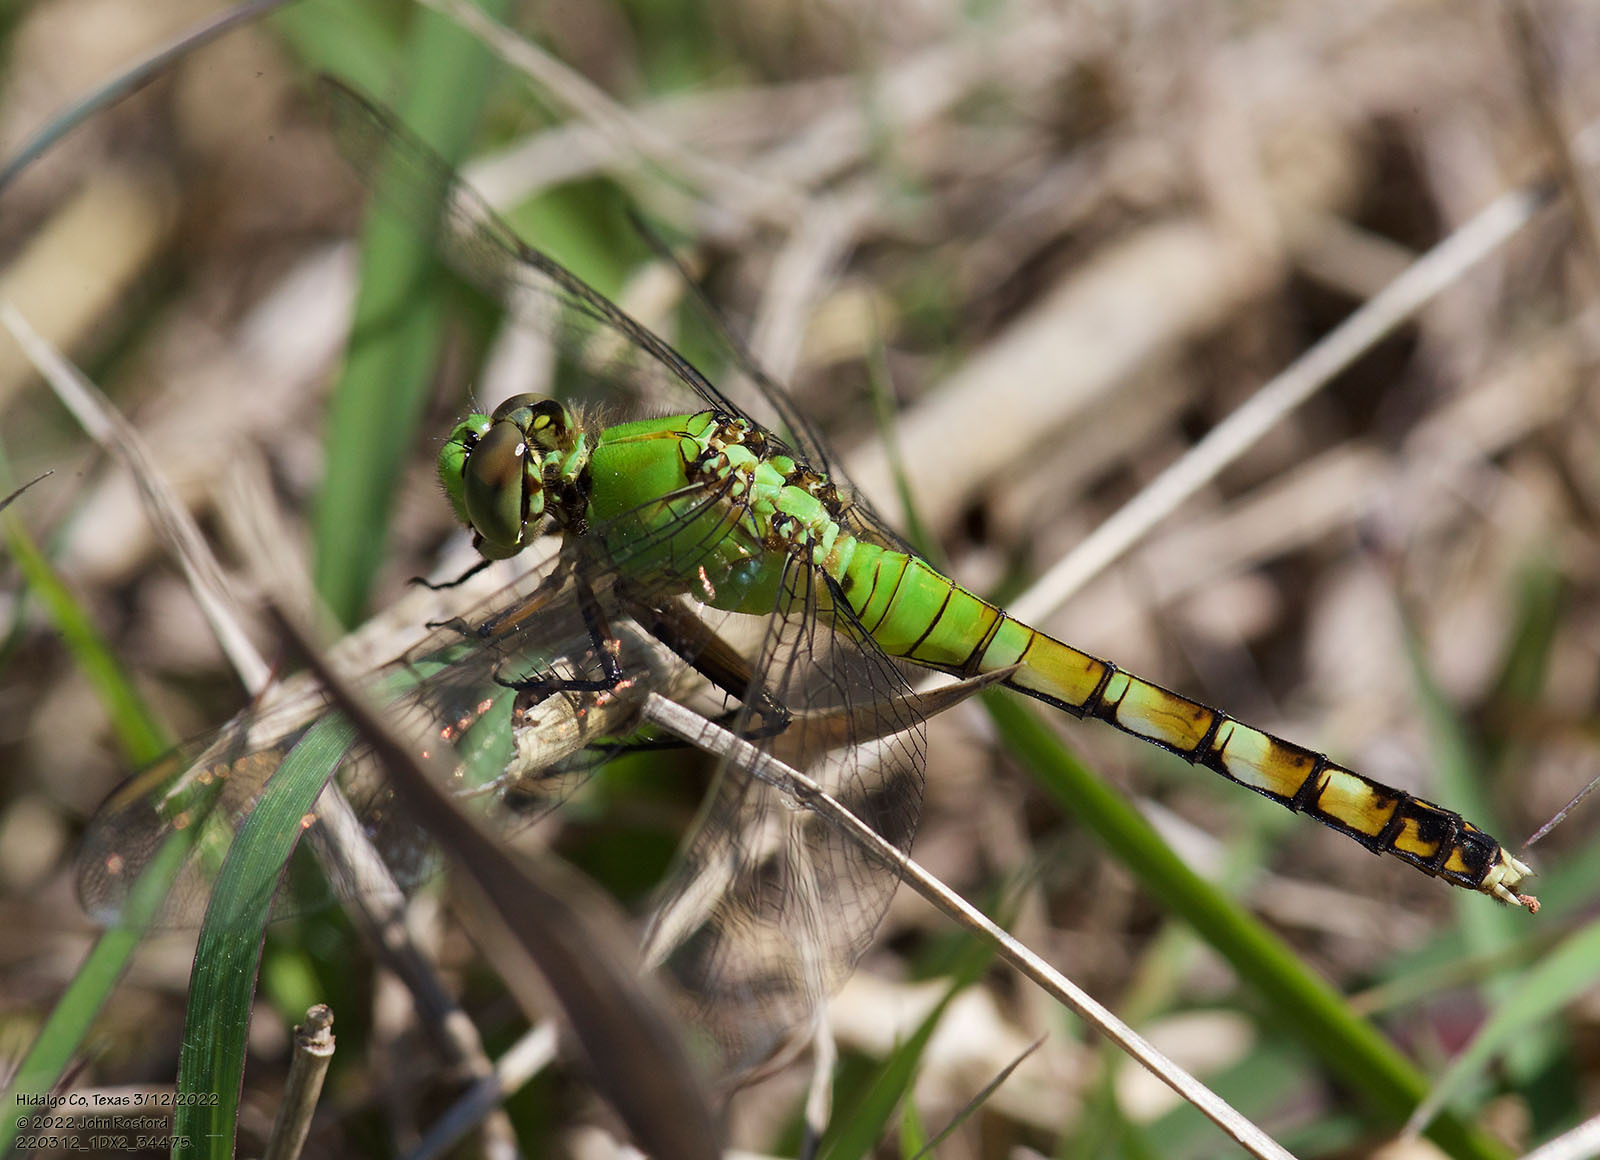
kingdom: Animalia
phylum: Arthropoda
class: Insecta
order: Odonata
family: Libellulidae
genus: Erythemis
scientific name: Erythemis simplicicollis
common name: Eastern pondhawk
